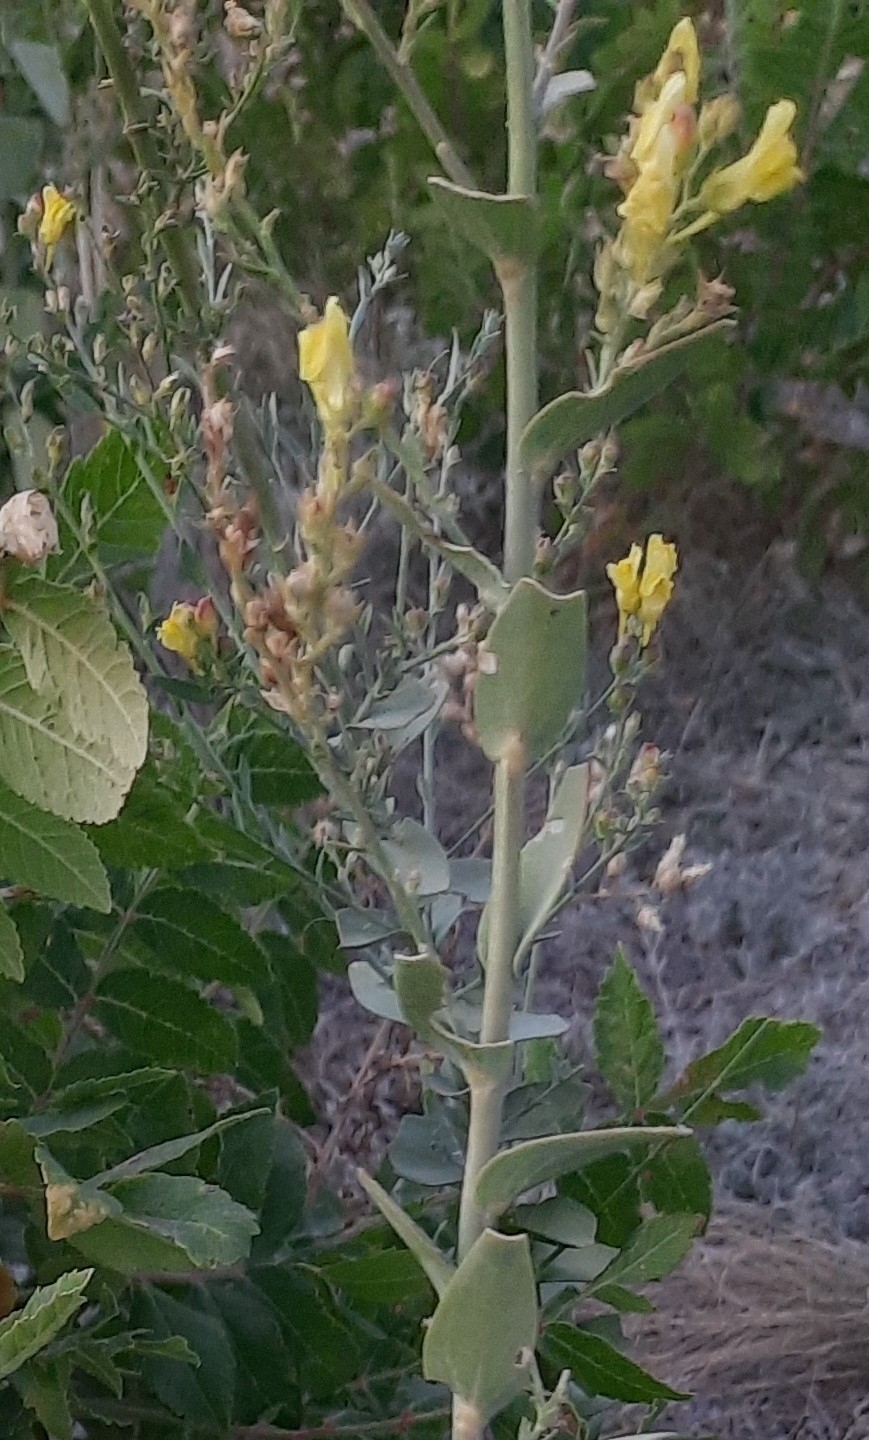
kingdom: Plantae
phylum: Tracheophyta
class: Magnoliopsida
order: Lamiales
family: Plantaginaceae
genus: Linaria
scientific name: Linaria genistifolia
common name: Broomleaf toadflax
